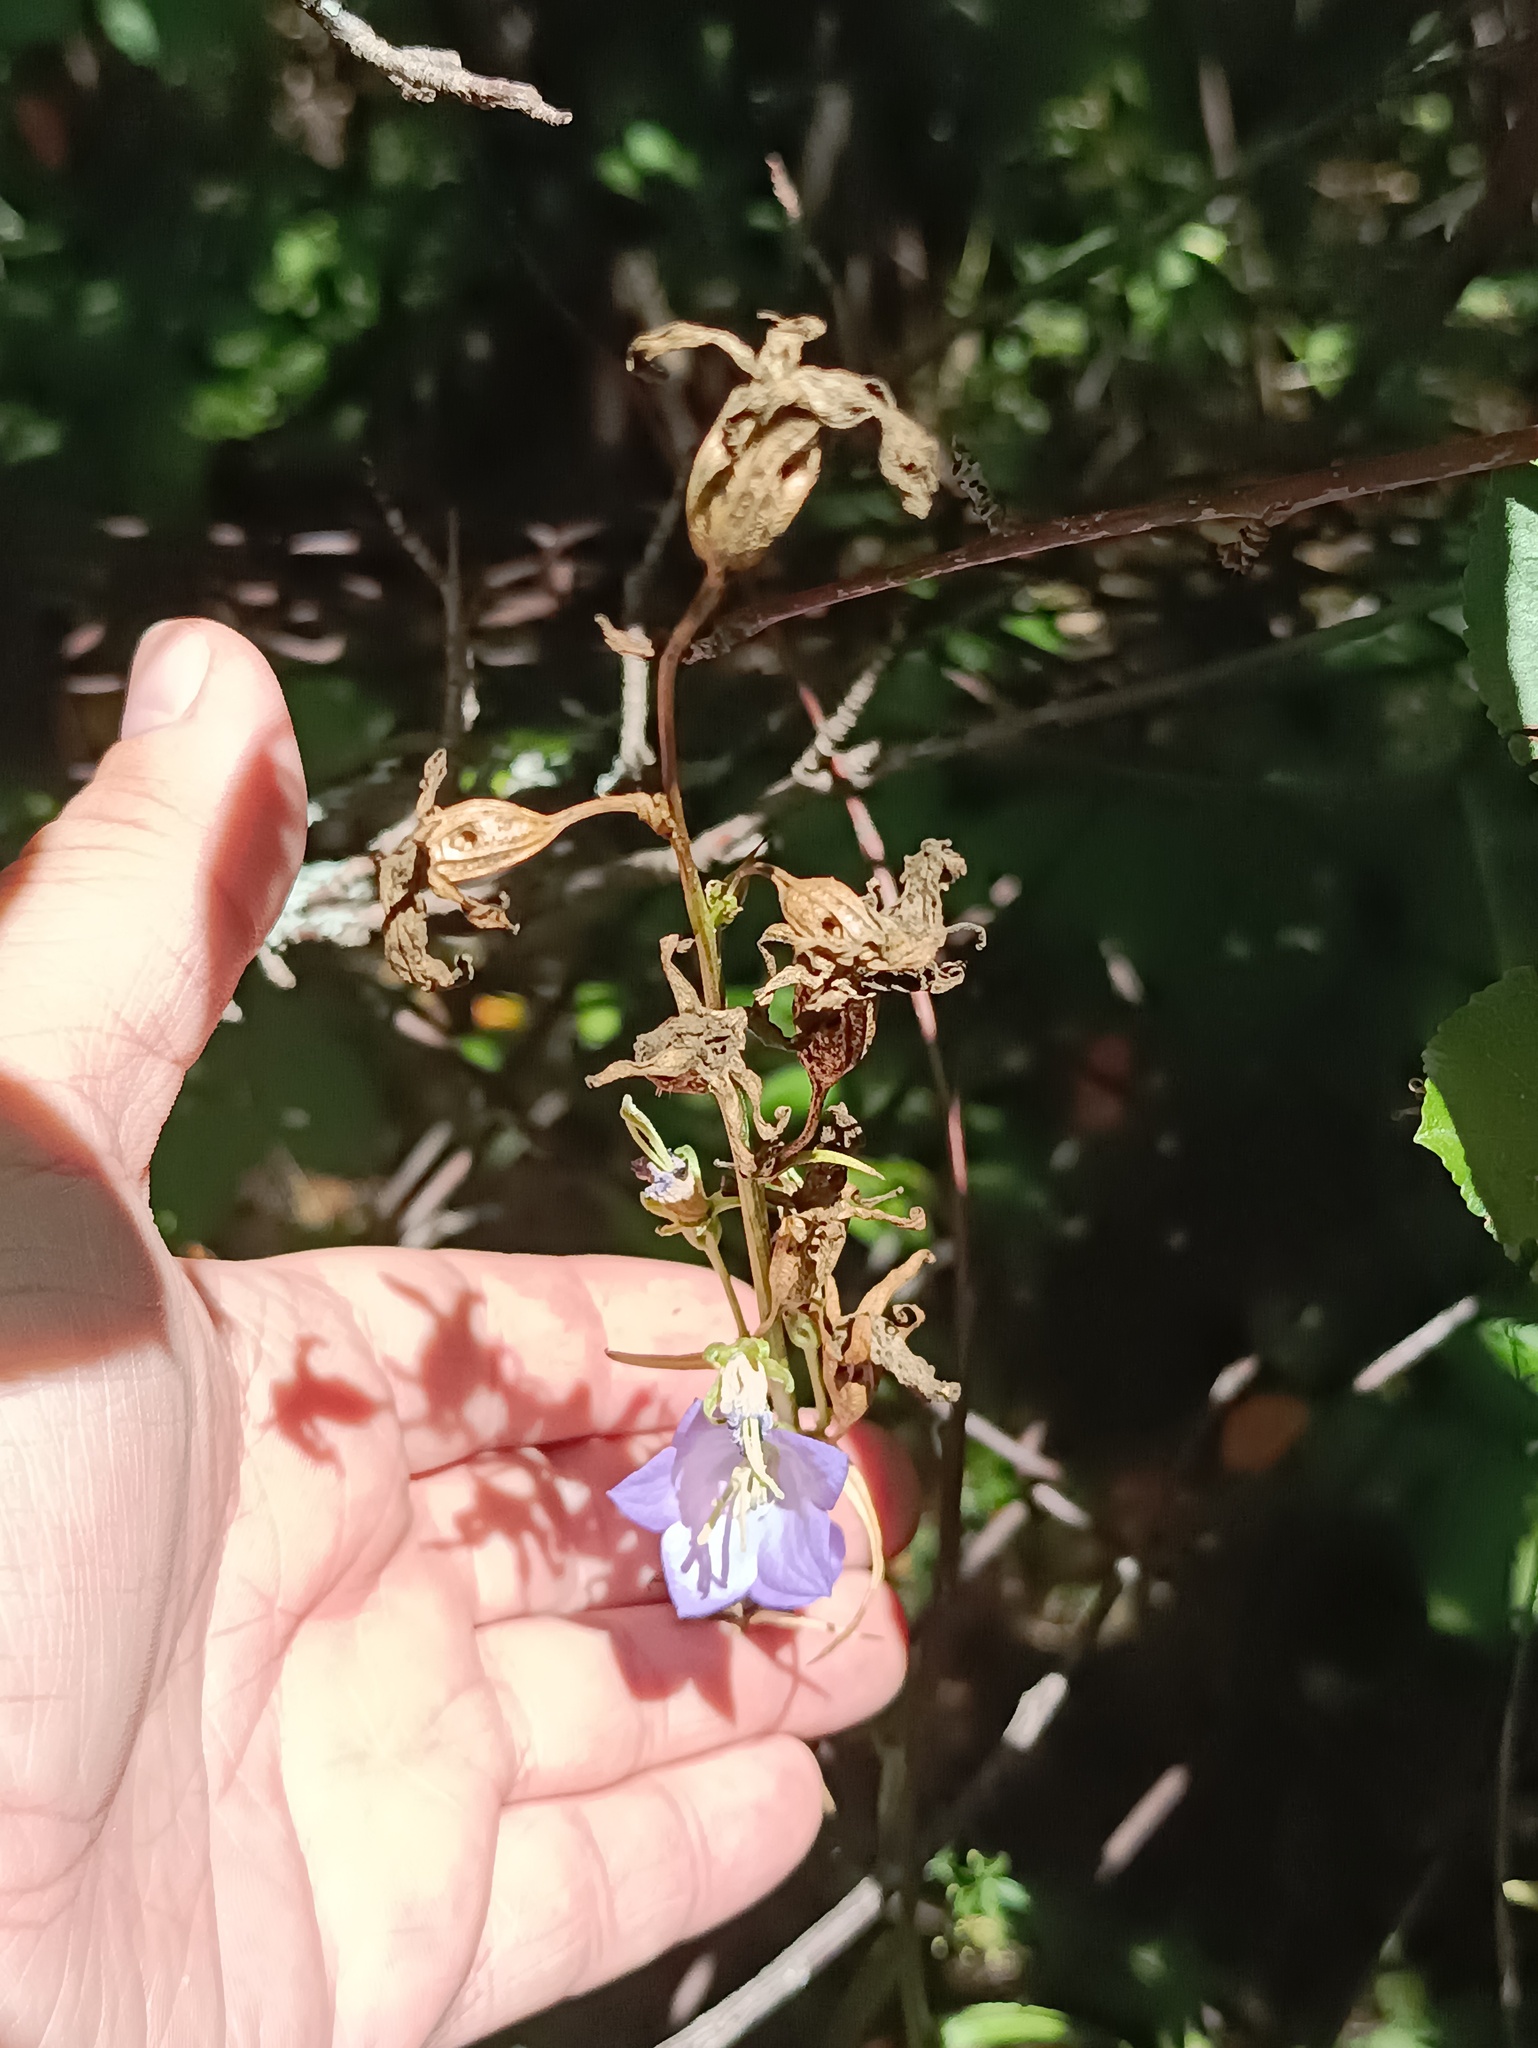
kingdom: Plantae
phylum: Tracheophyta
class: Magnoliopsida
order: Asterales
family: Campanulaceae
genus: Campanula
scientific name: Campanula persicifolia
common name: Peach-leaved bellflower
